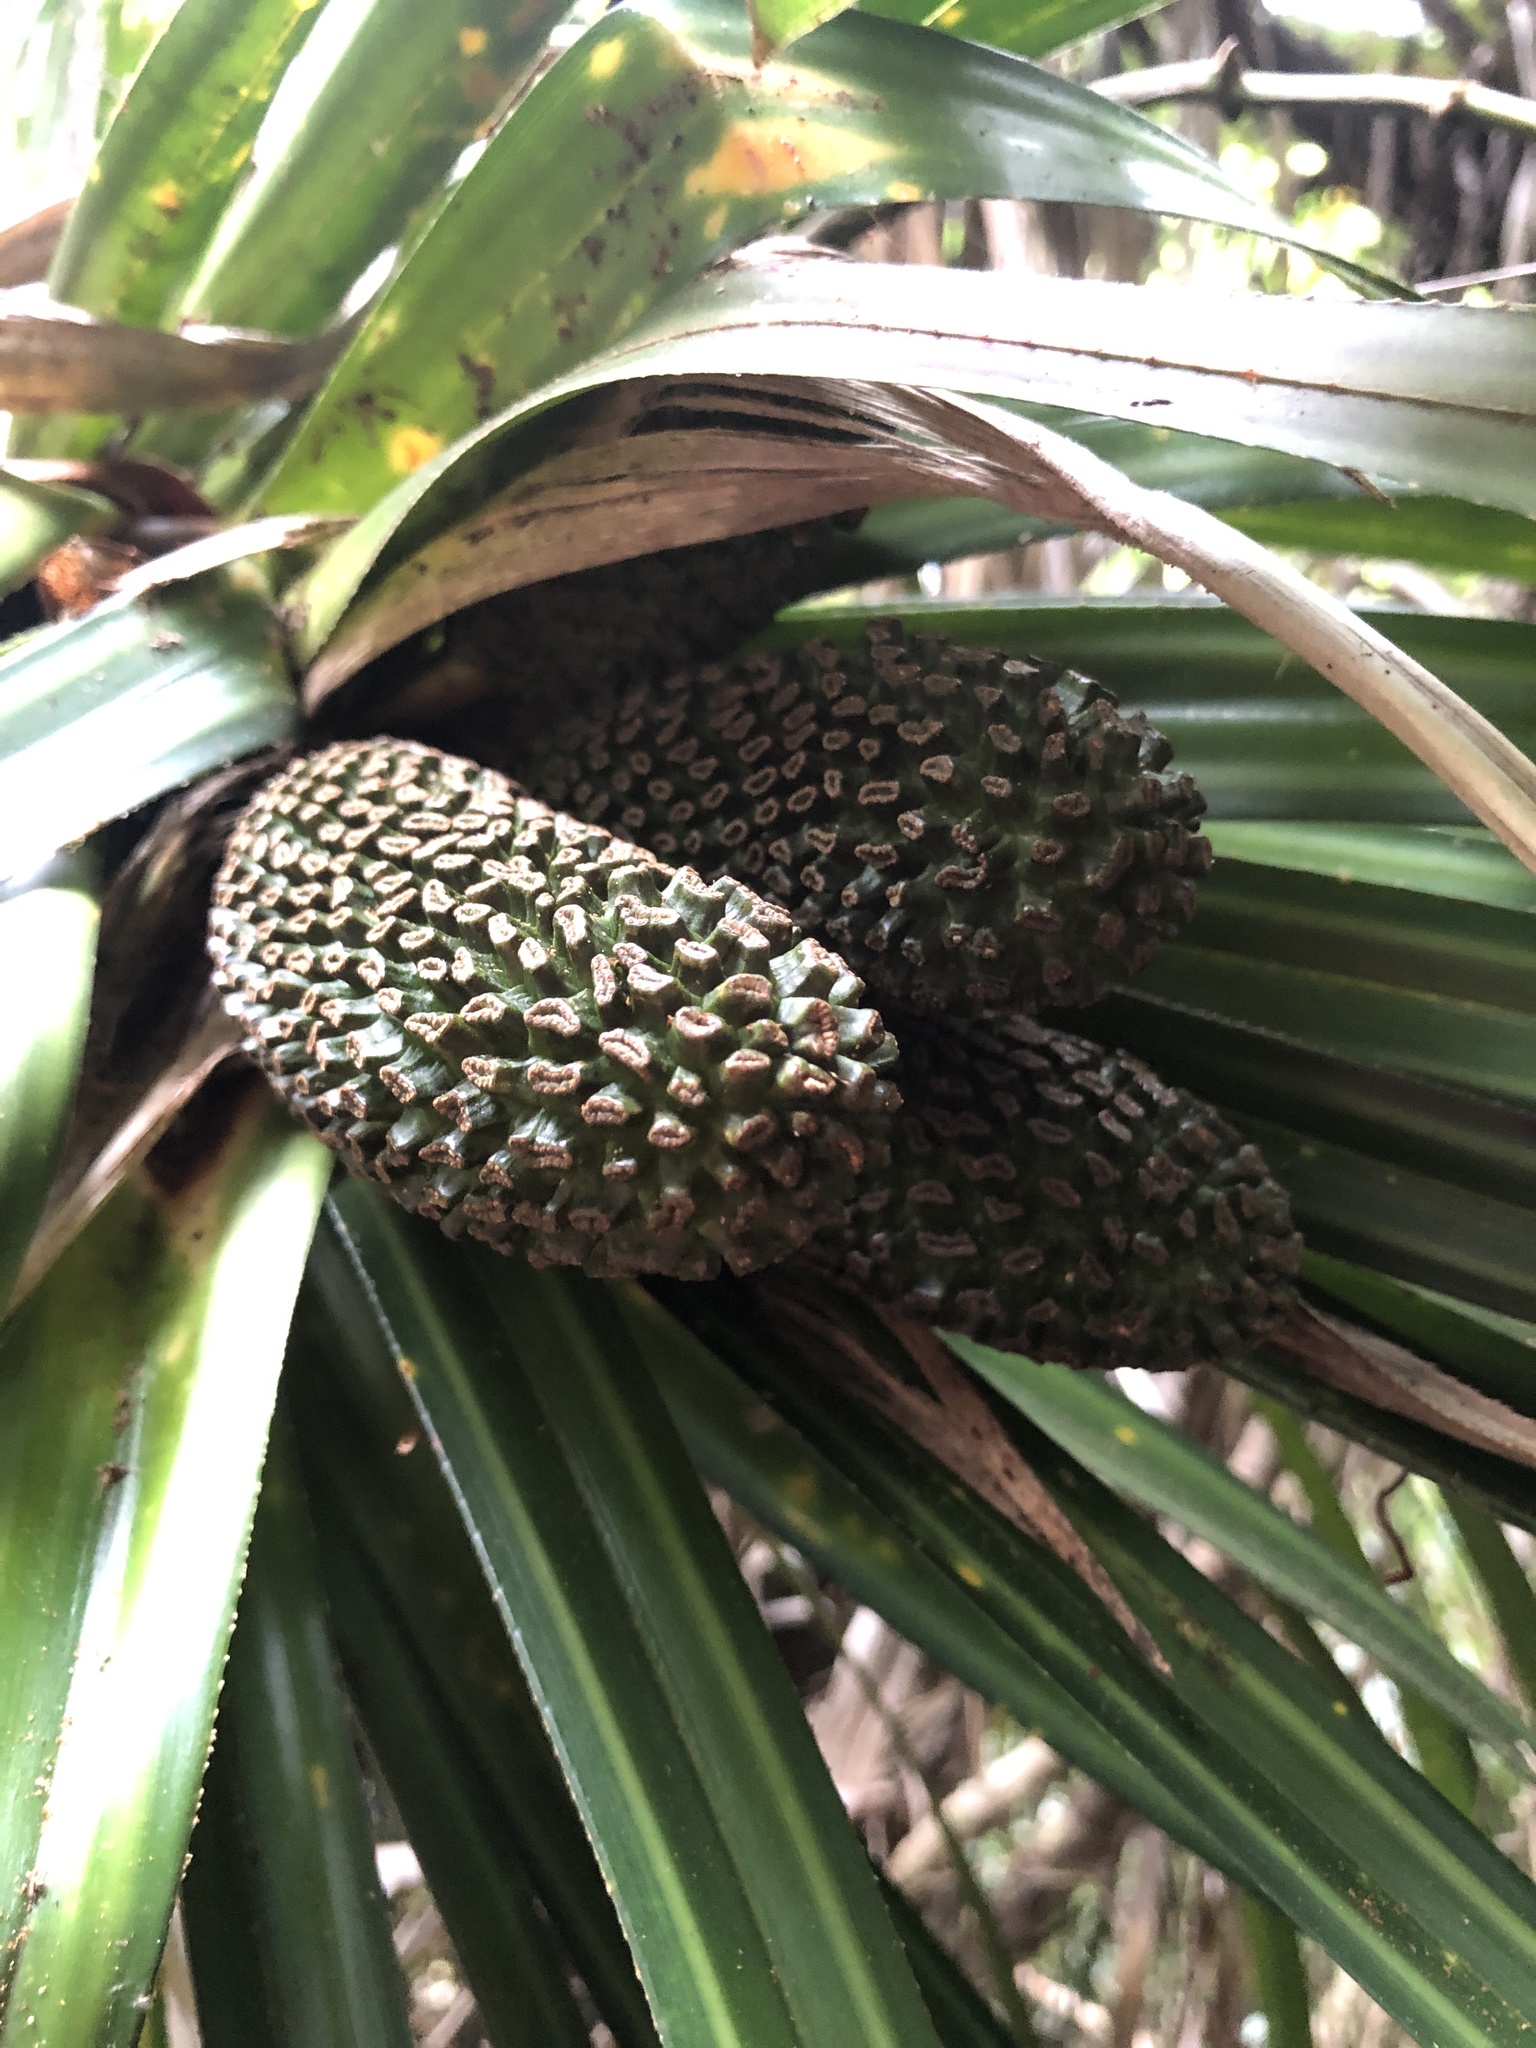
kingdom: Plantae
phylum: Tracheophyta
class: Liliopsida
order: Pandanales
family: Pandanaceae
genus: Freycinetia
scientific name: Freycinetia banksii
